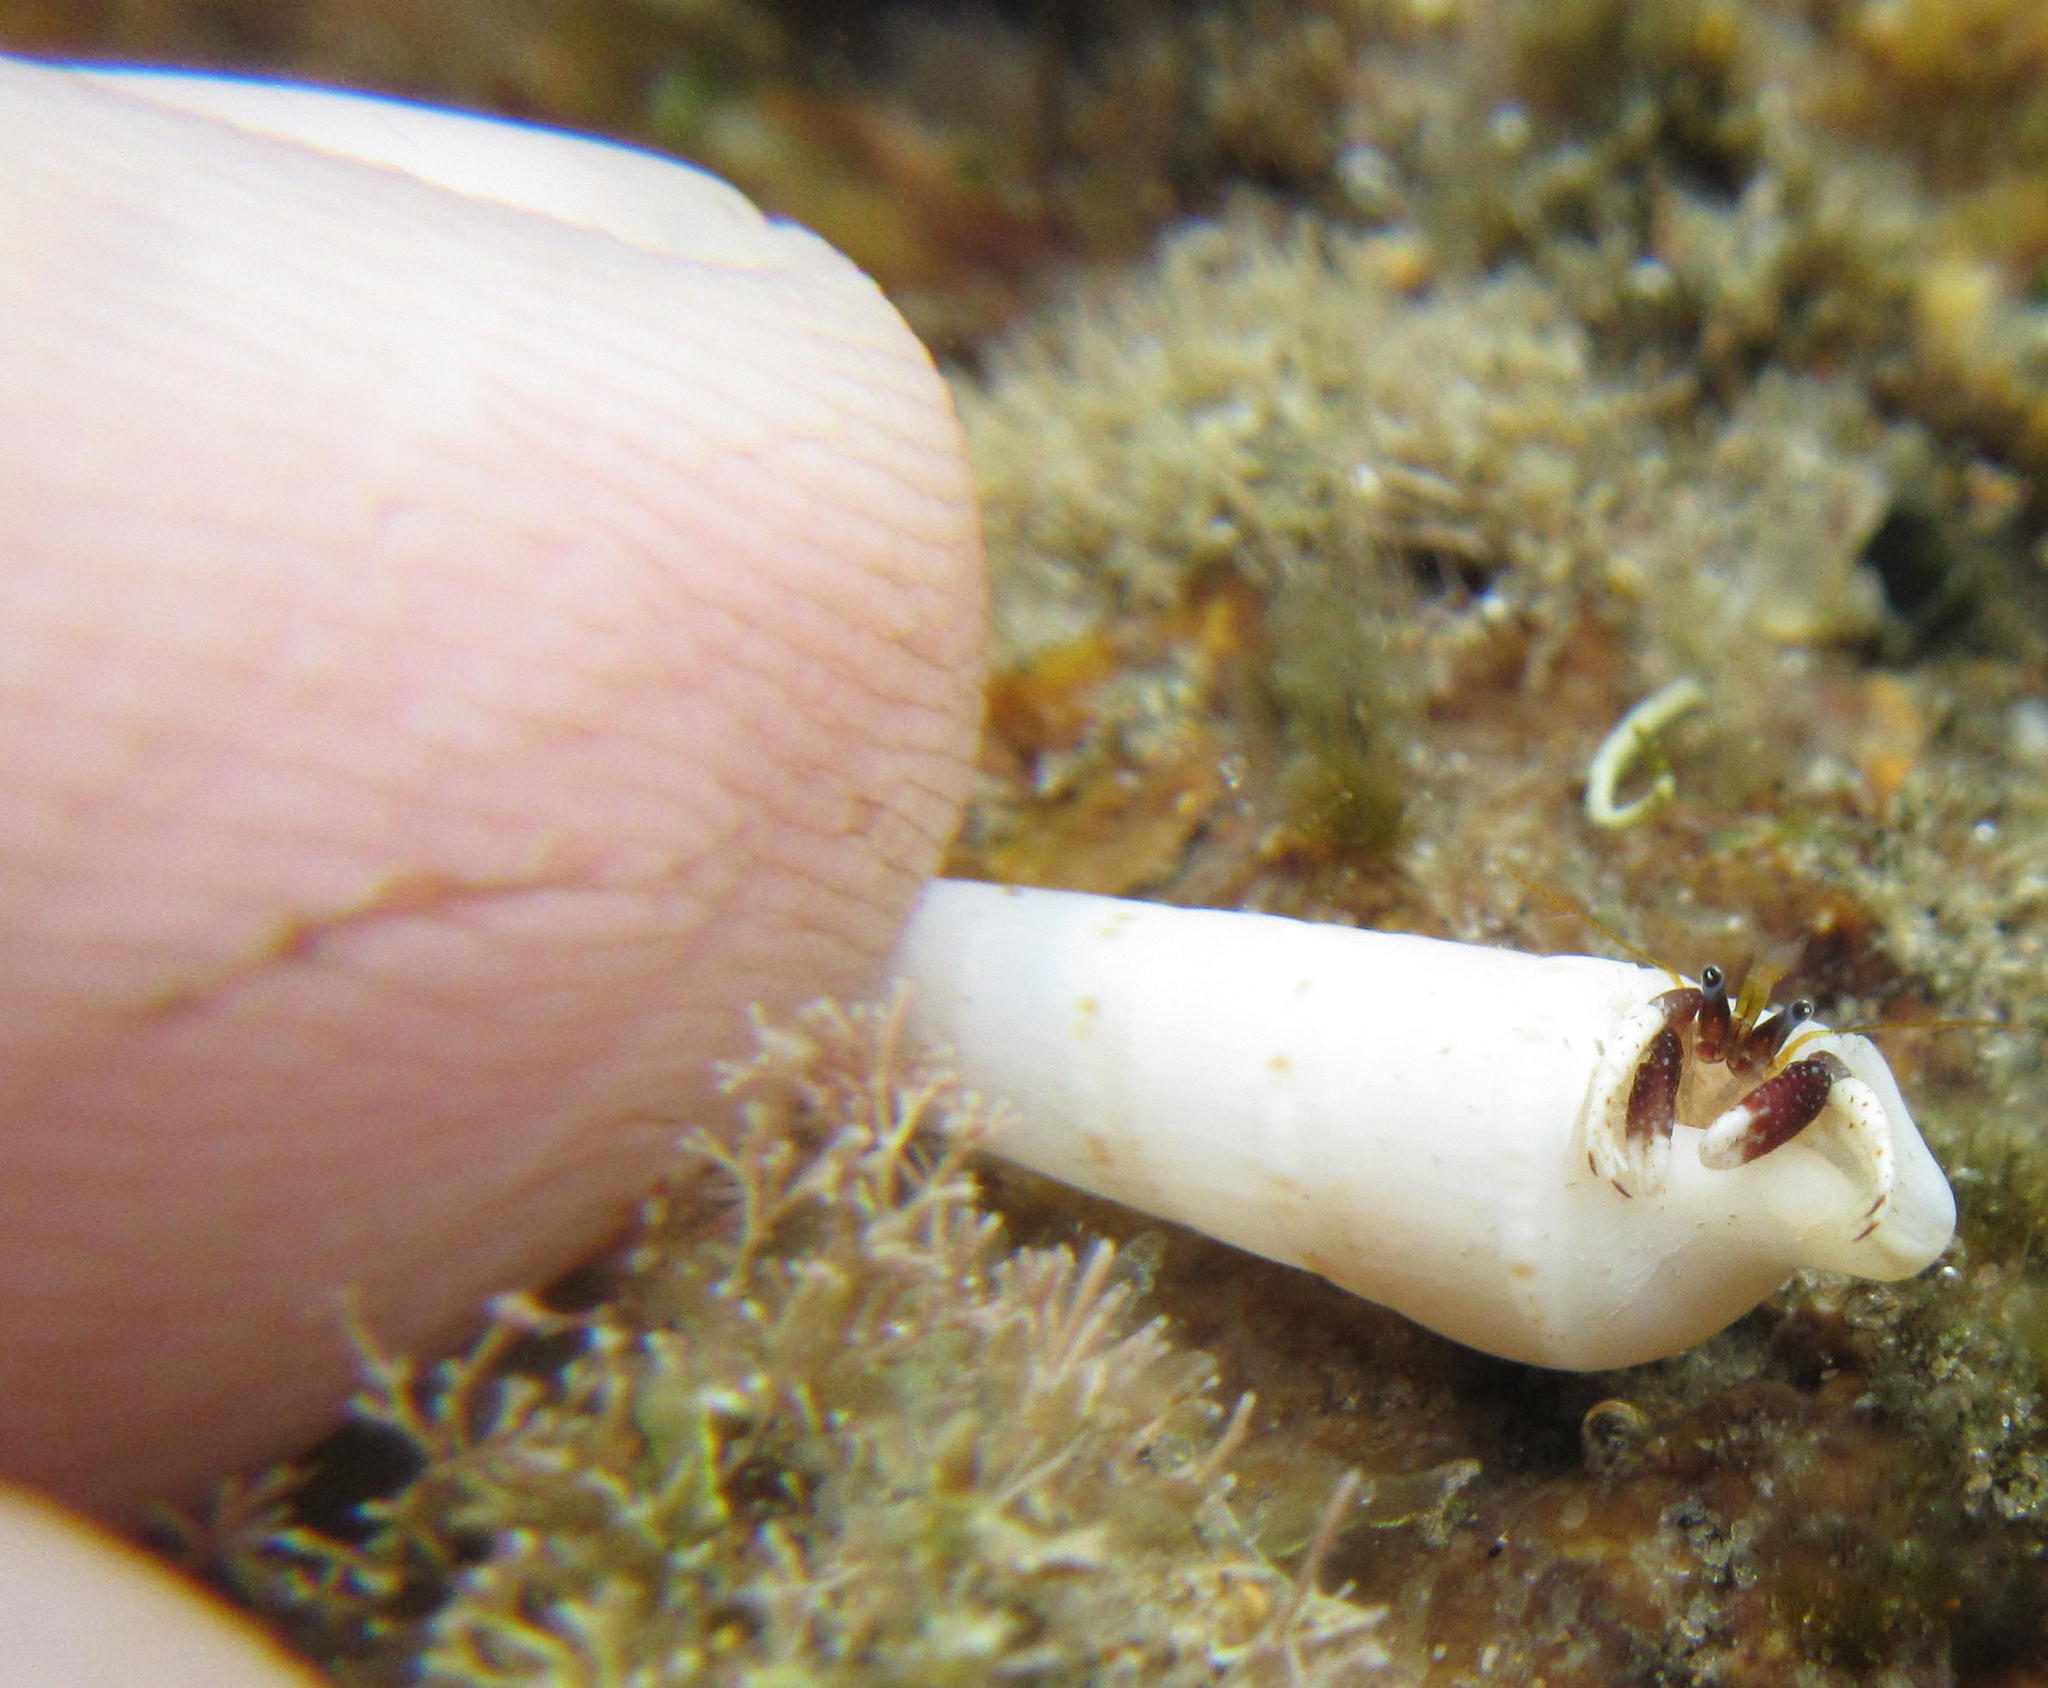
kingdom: Animalia
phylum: Arthropoda
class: Malacostraca
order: Decapoda
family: Diogenidae
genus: Calcinus
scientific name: Calcinus morgani
